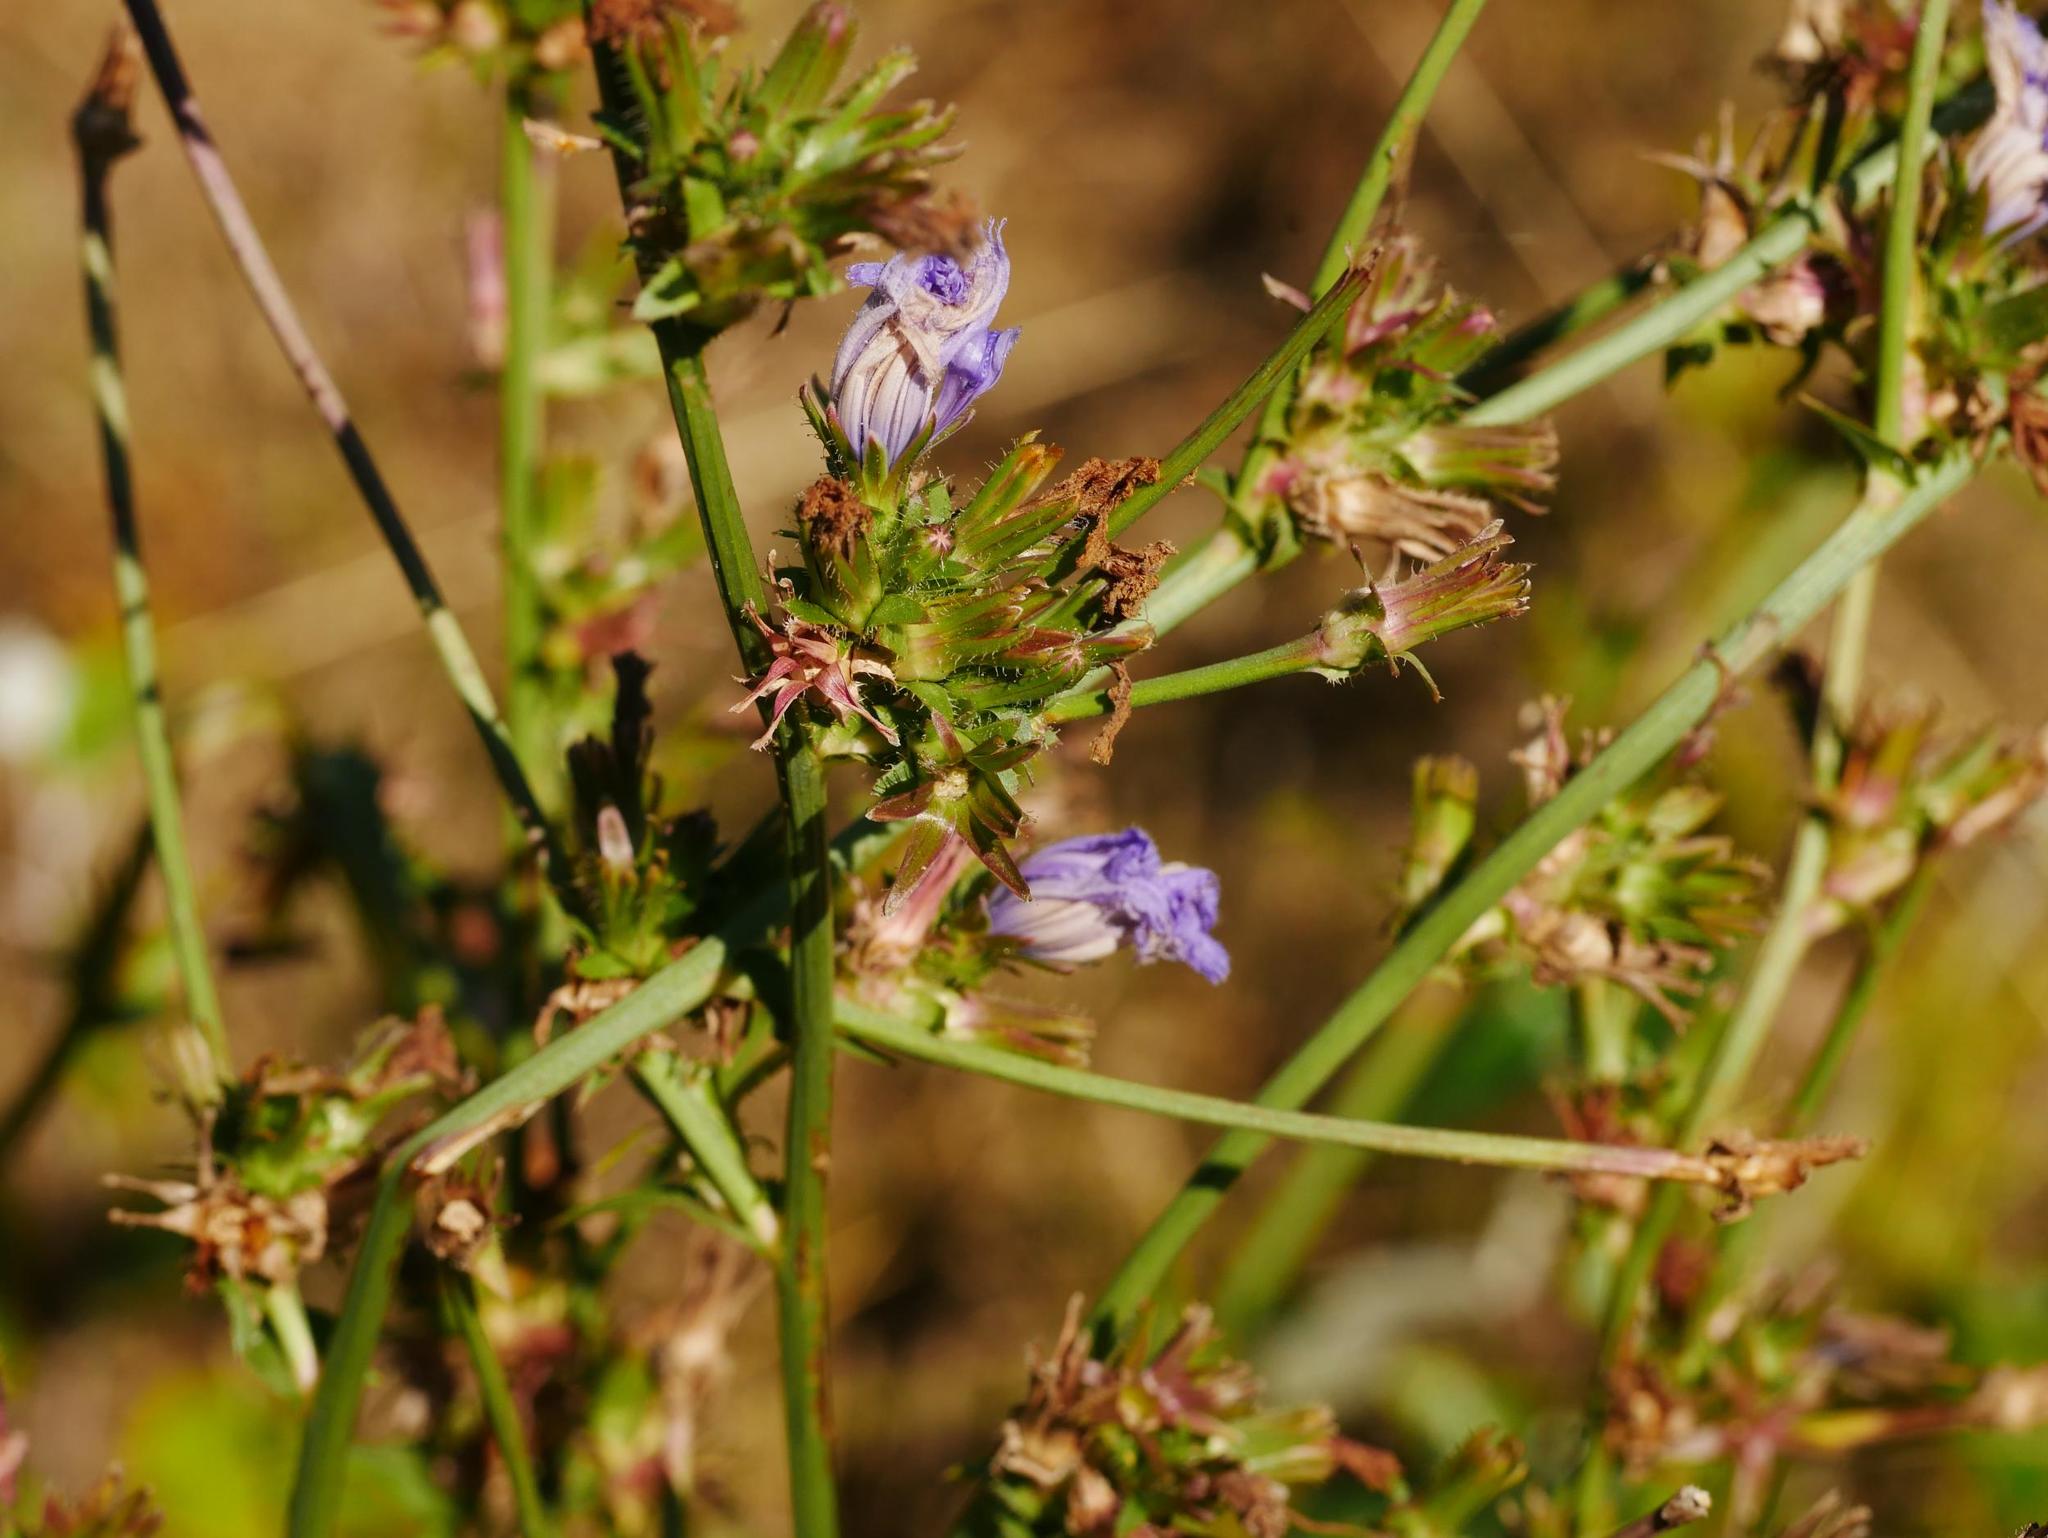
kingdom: Plantae
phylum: Tracheophyta
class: Magnoliopsida
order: Asterales
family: Asteraceae
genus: Cichorium
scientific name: Cichorium intybus
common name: Chicory
